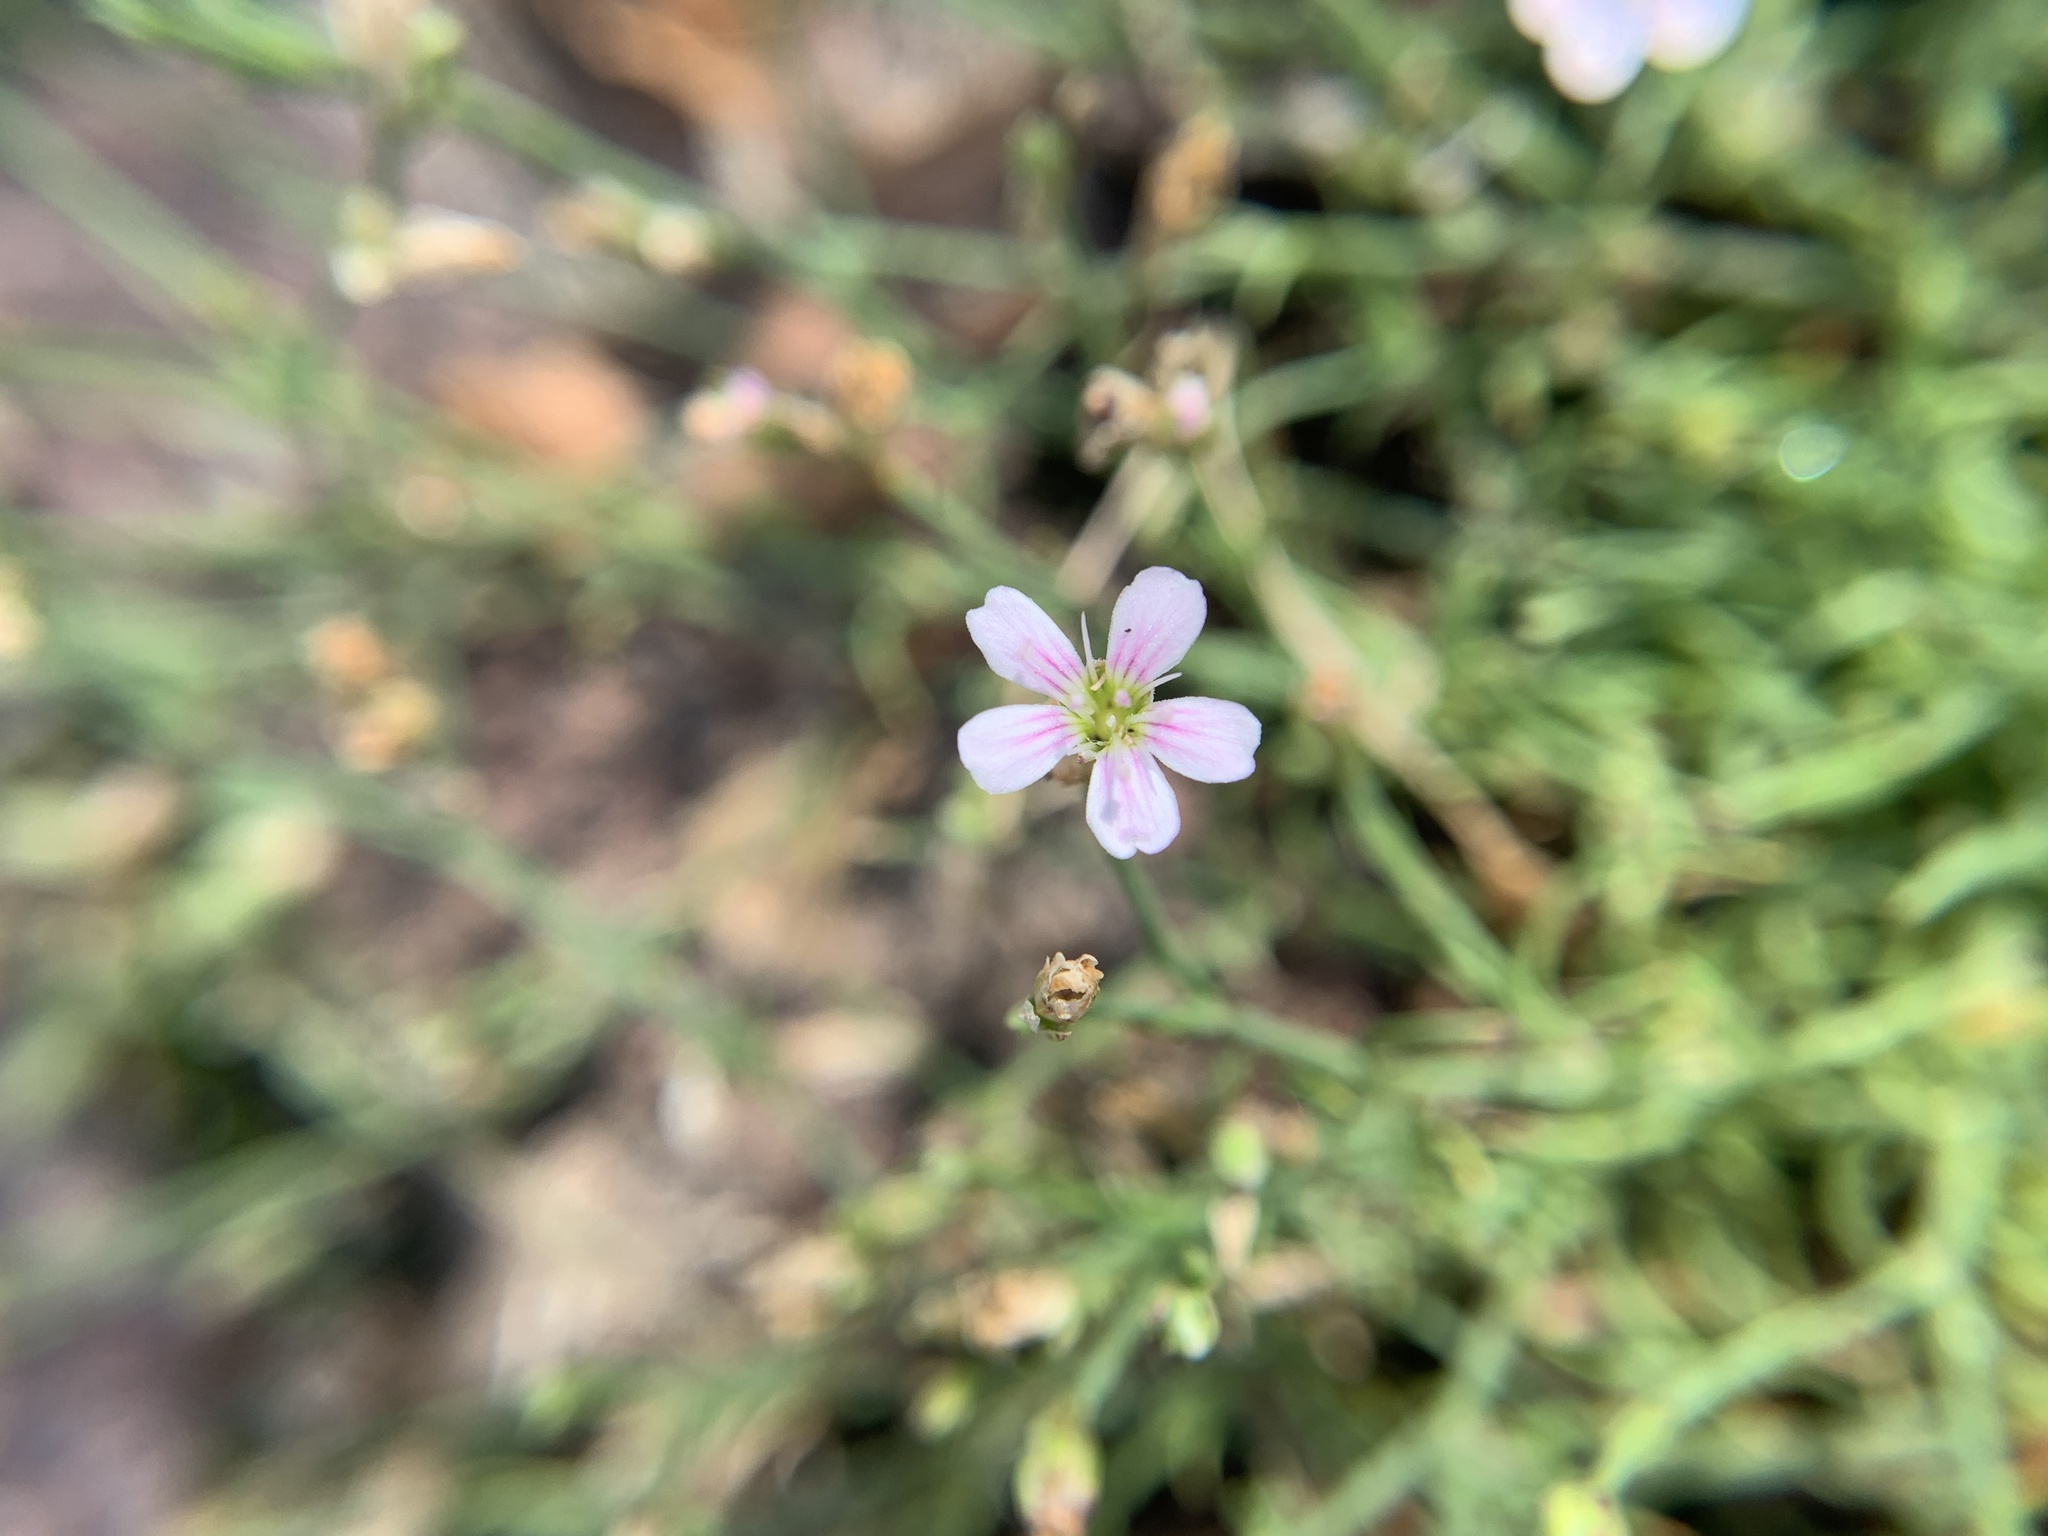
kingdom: Plantae
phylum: Tracheophyta
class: Magnoliopsida
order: Caryophyllales
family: Caryophyllaceae
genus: Petrorhagia
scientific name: Petrorhagia saxifraga
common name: Tunicflower
